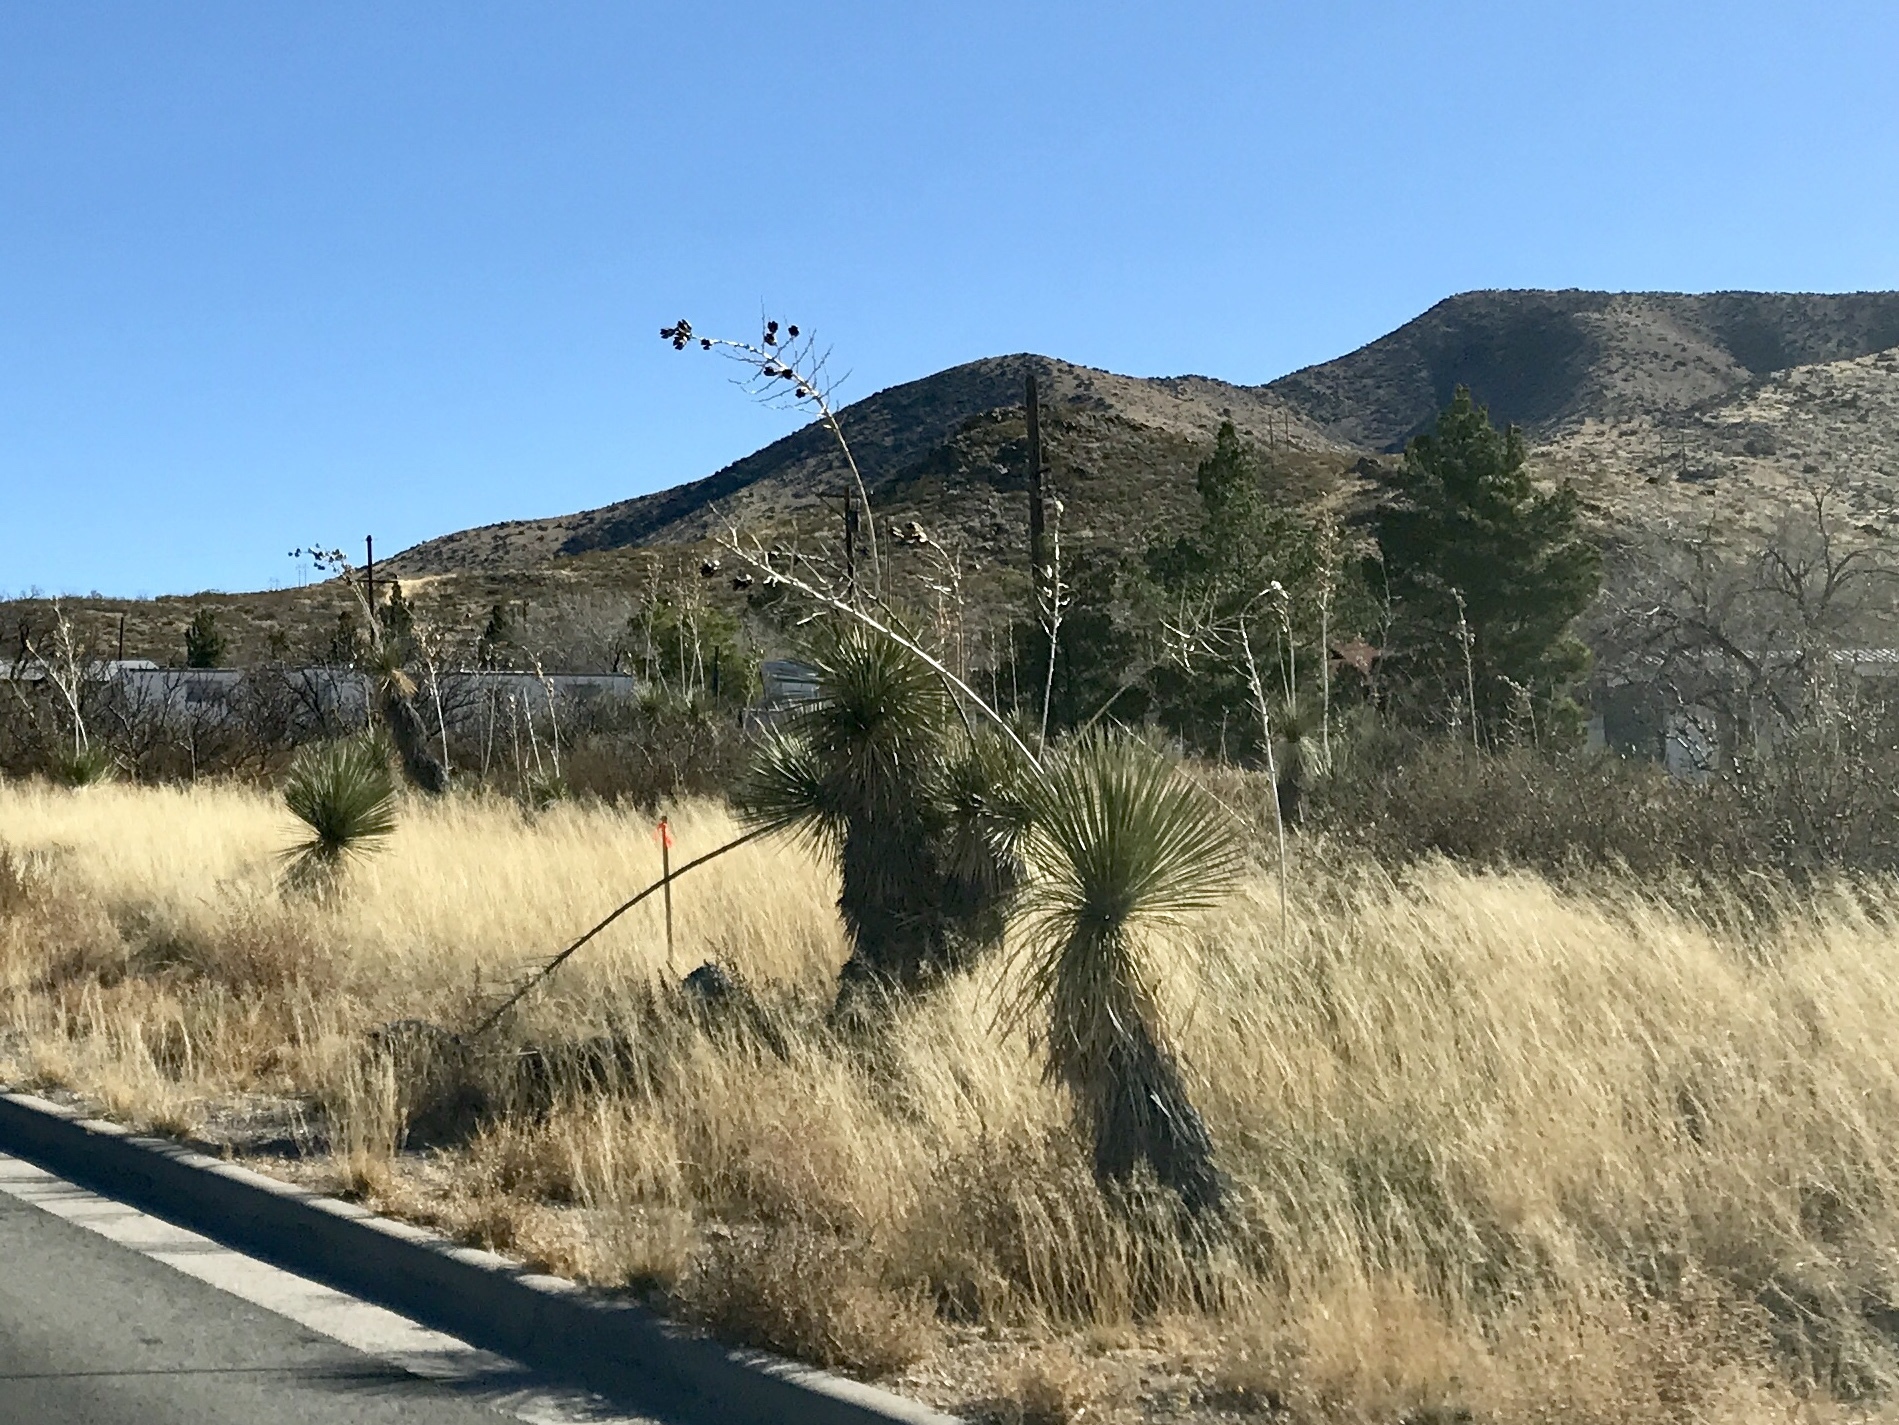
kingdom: Plantae
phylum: Tracheophyta
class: Liliopsida
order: Asparagales
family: Asparagaceae
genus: Yucca
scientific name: Yucca elata
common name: Palmella
